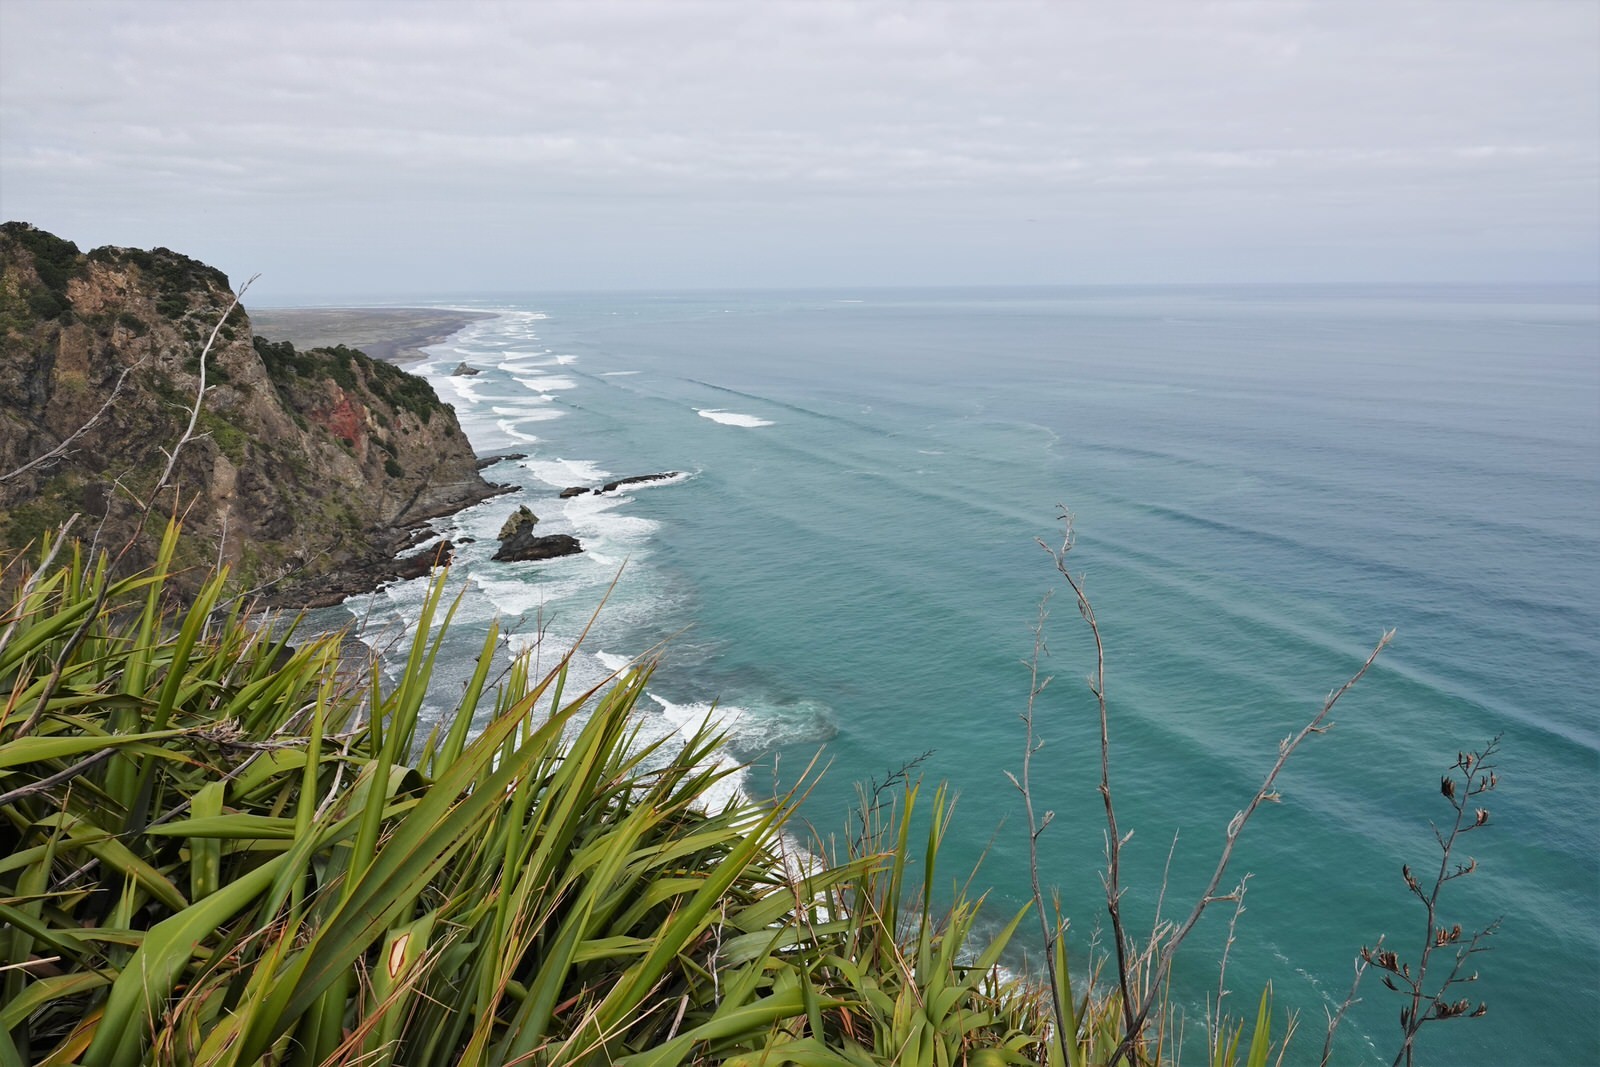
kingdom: Plantae
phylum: Tracheophyta
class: Liliopsida
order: Asparagales
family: Asphodelaceae
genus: Phormium
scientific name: Phormium tenax
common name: New zealand flax
